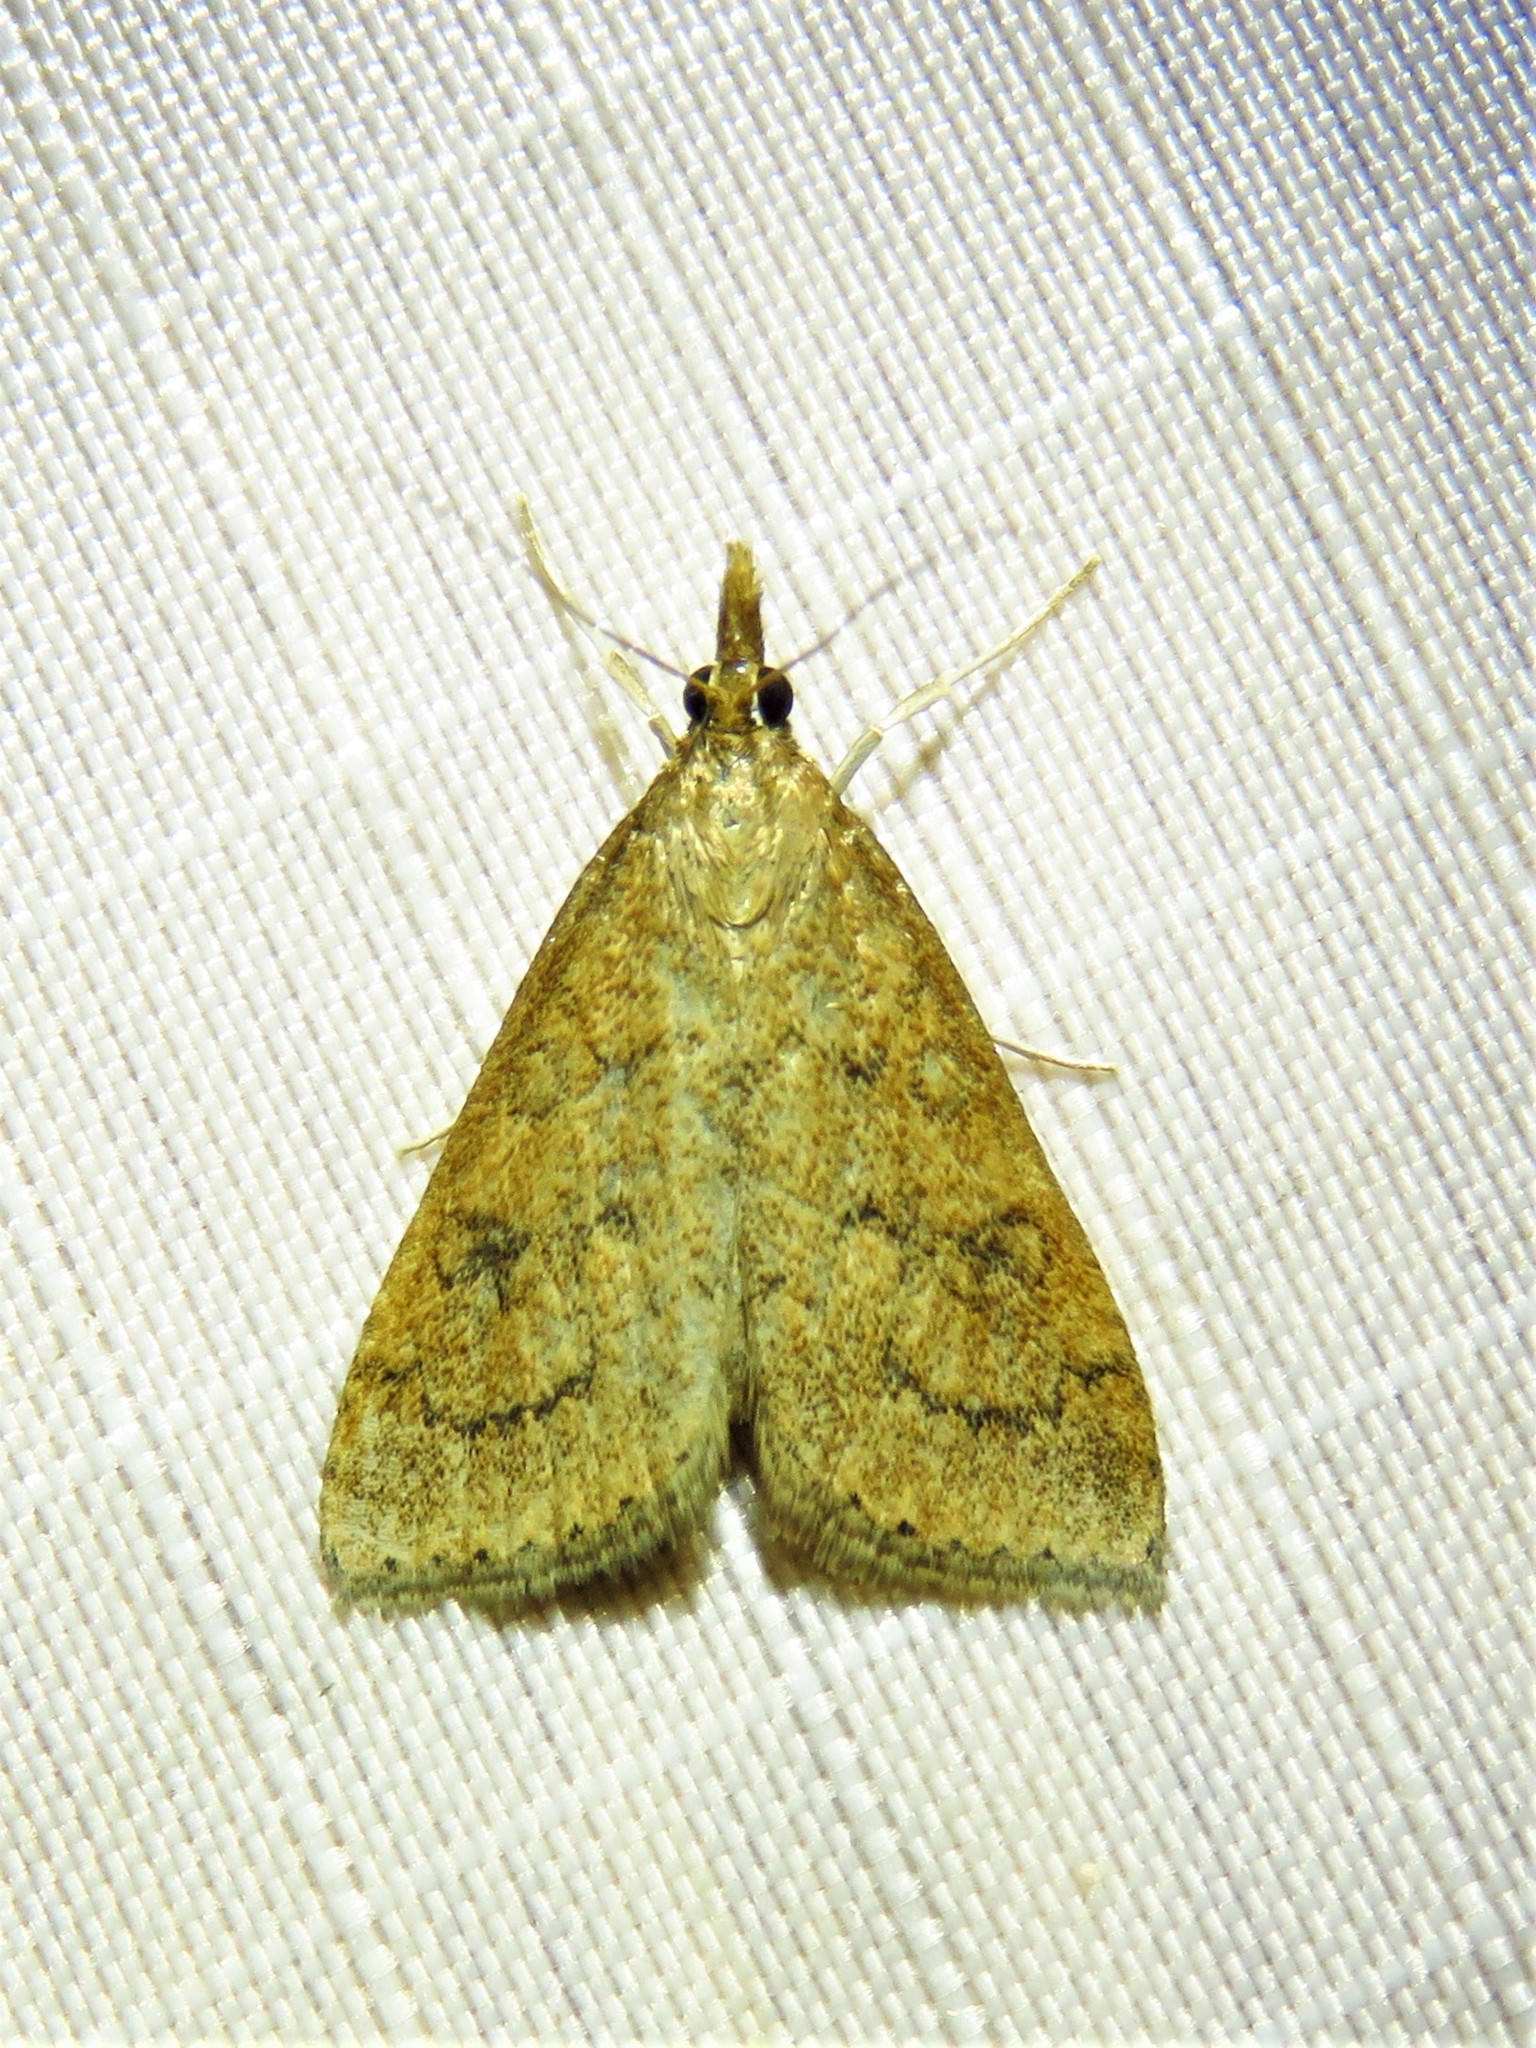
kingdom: Animalia
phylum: Arthropoda
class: Insecta
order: Lepidoptera
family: Crambidae
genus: Udea
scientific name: Udea rubigalis
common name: Celery leaftier moth
